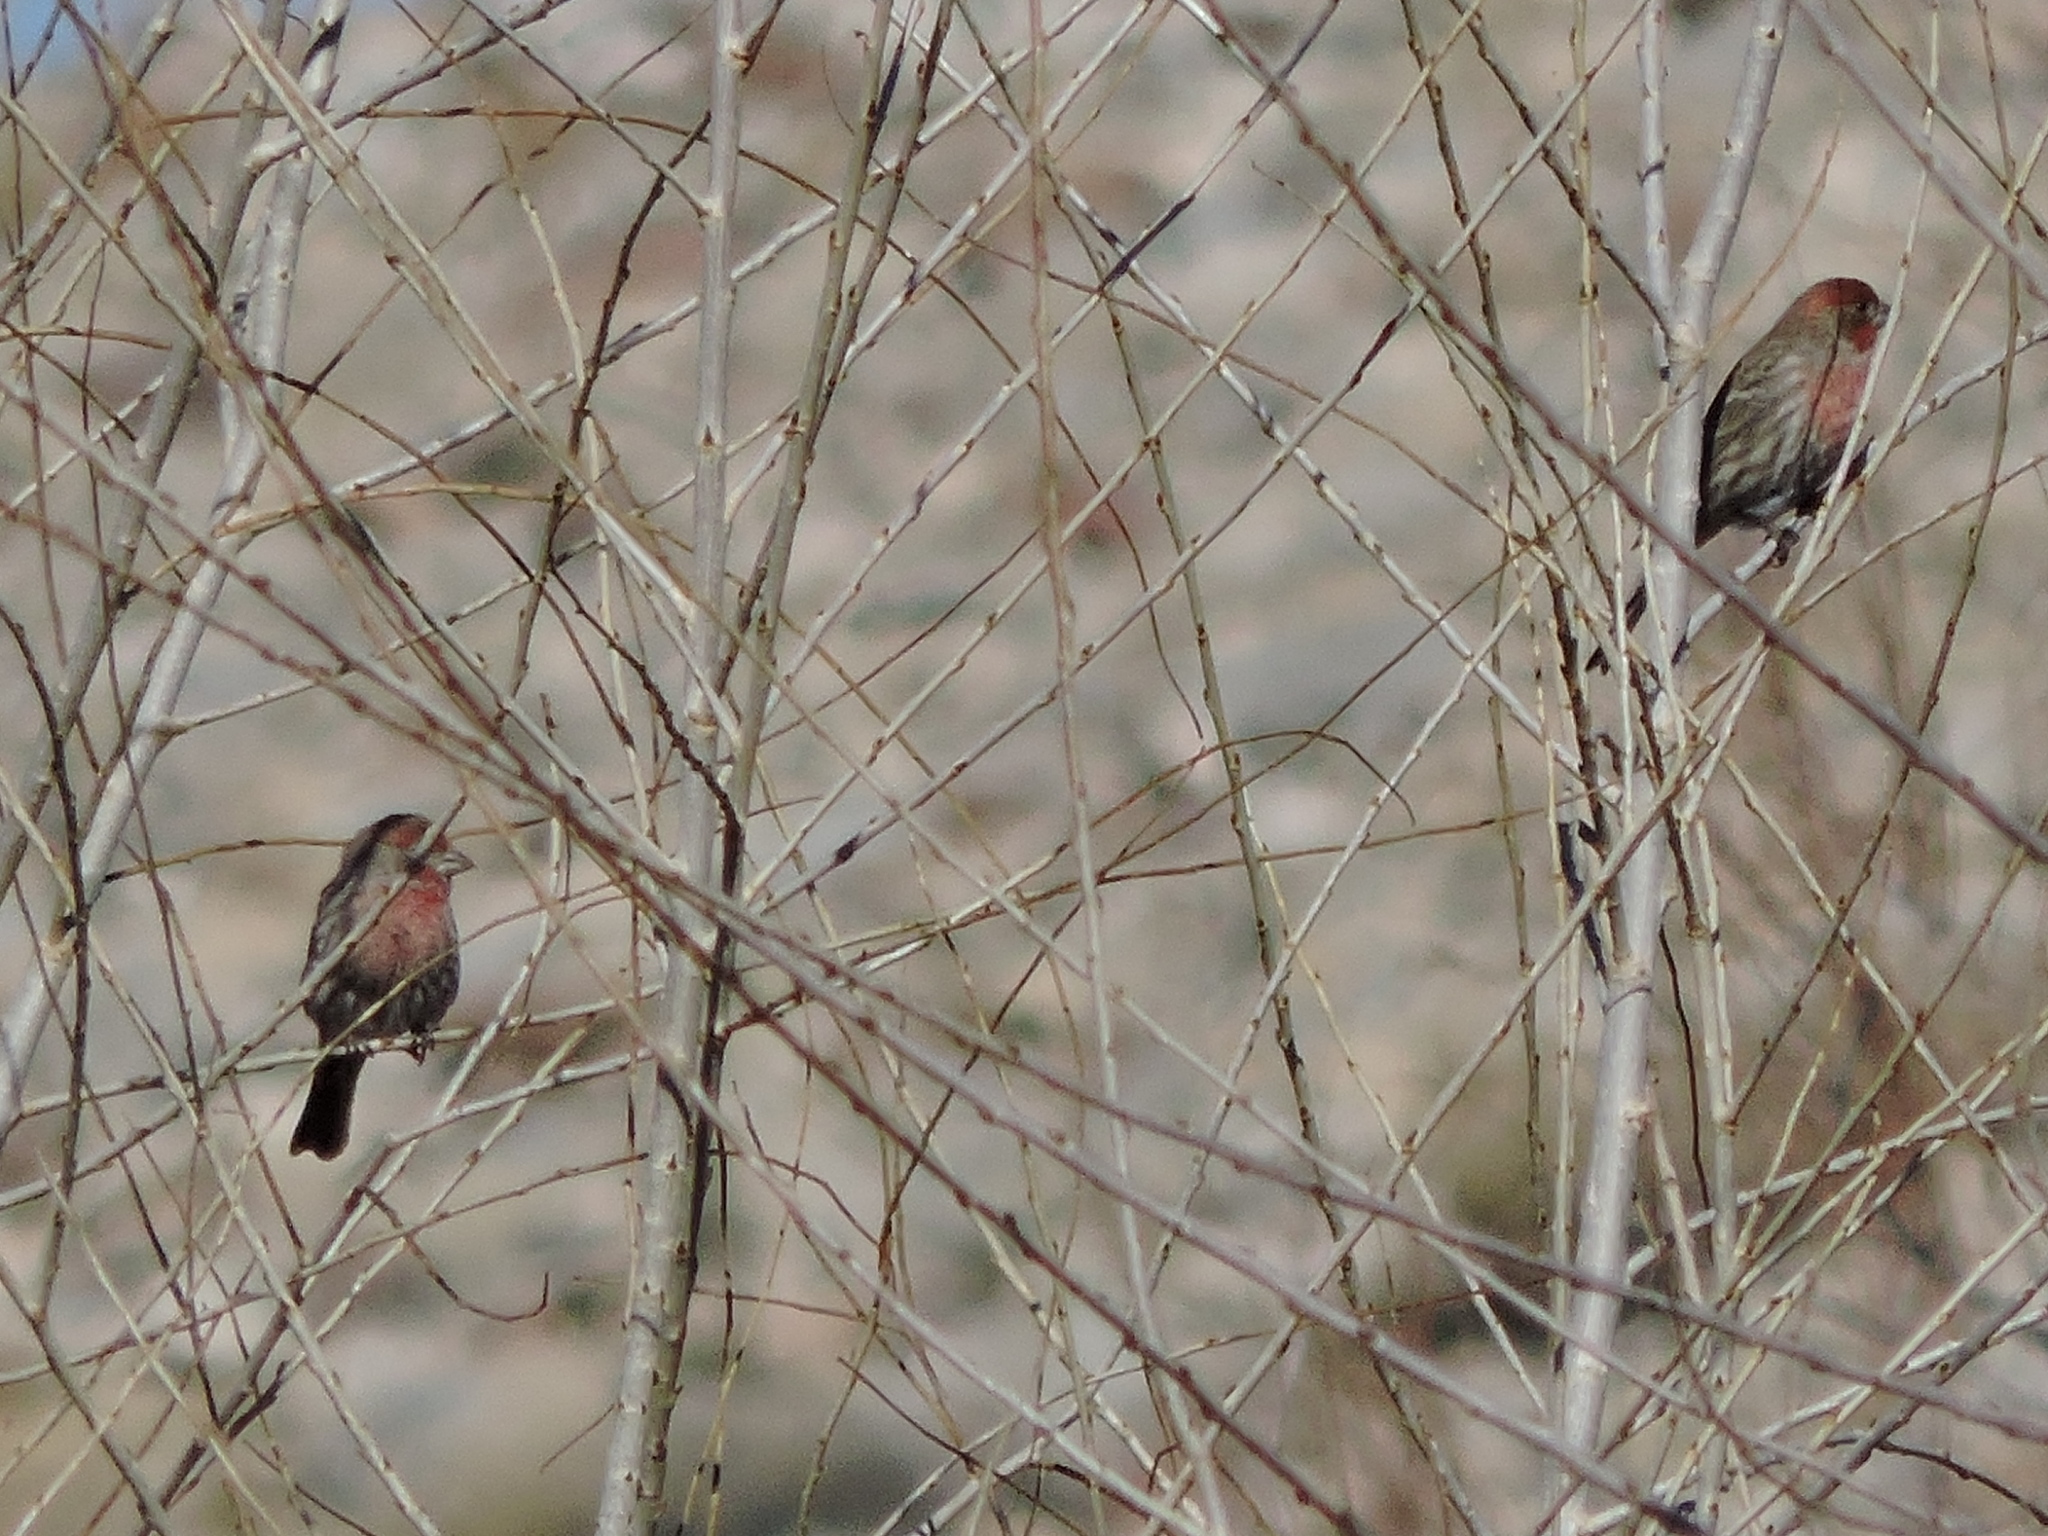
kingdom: Animalia
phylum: Chordata
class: Aves
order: Passeriformes
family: Fringillidae
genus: Haemorhous
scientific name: Haemorhous mexicanus
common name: House finch
